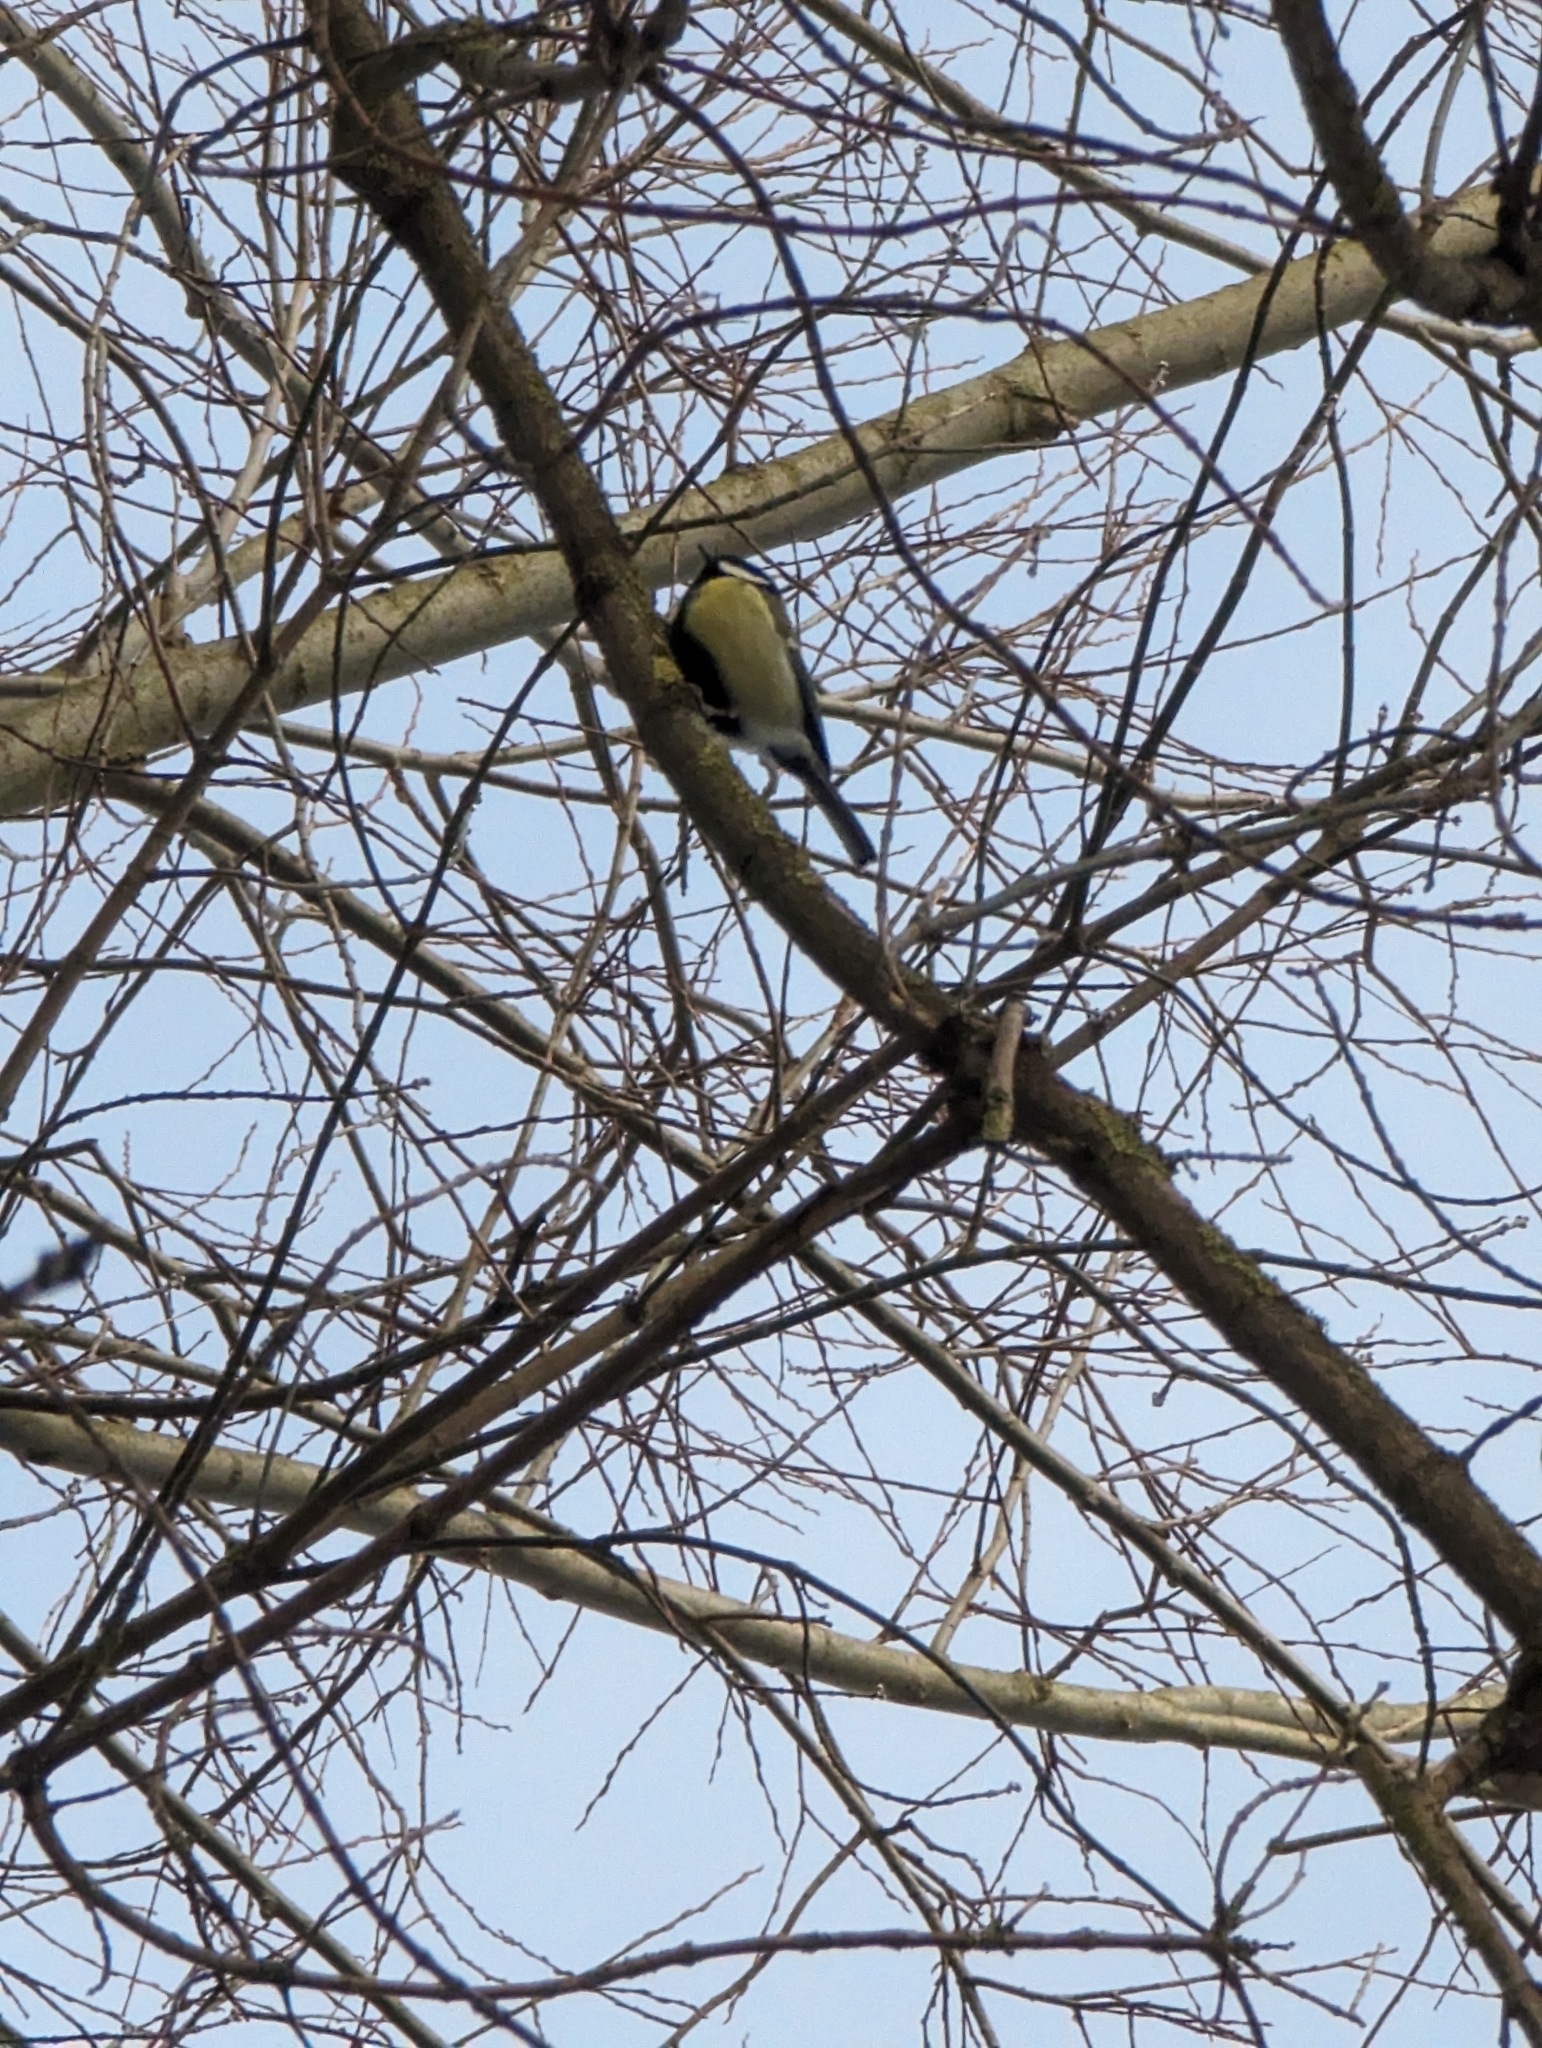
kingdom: Animalia
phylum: Chordata
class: Aves
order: Passeriformes
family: Paridae
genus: Parus
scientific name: Parus major
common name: Great tit
